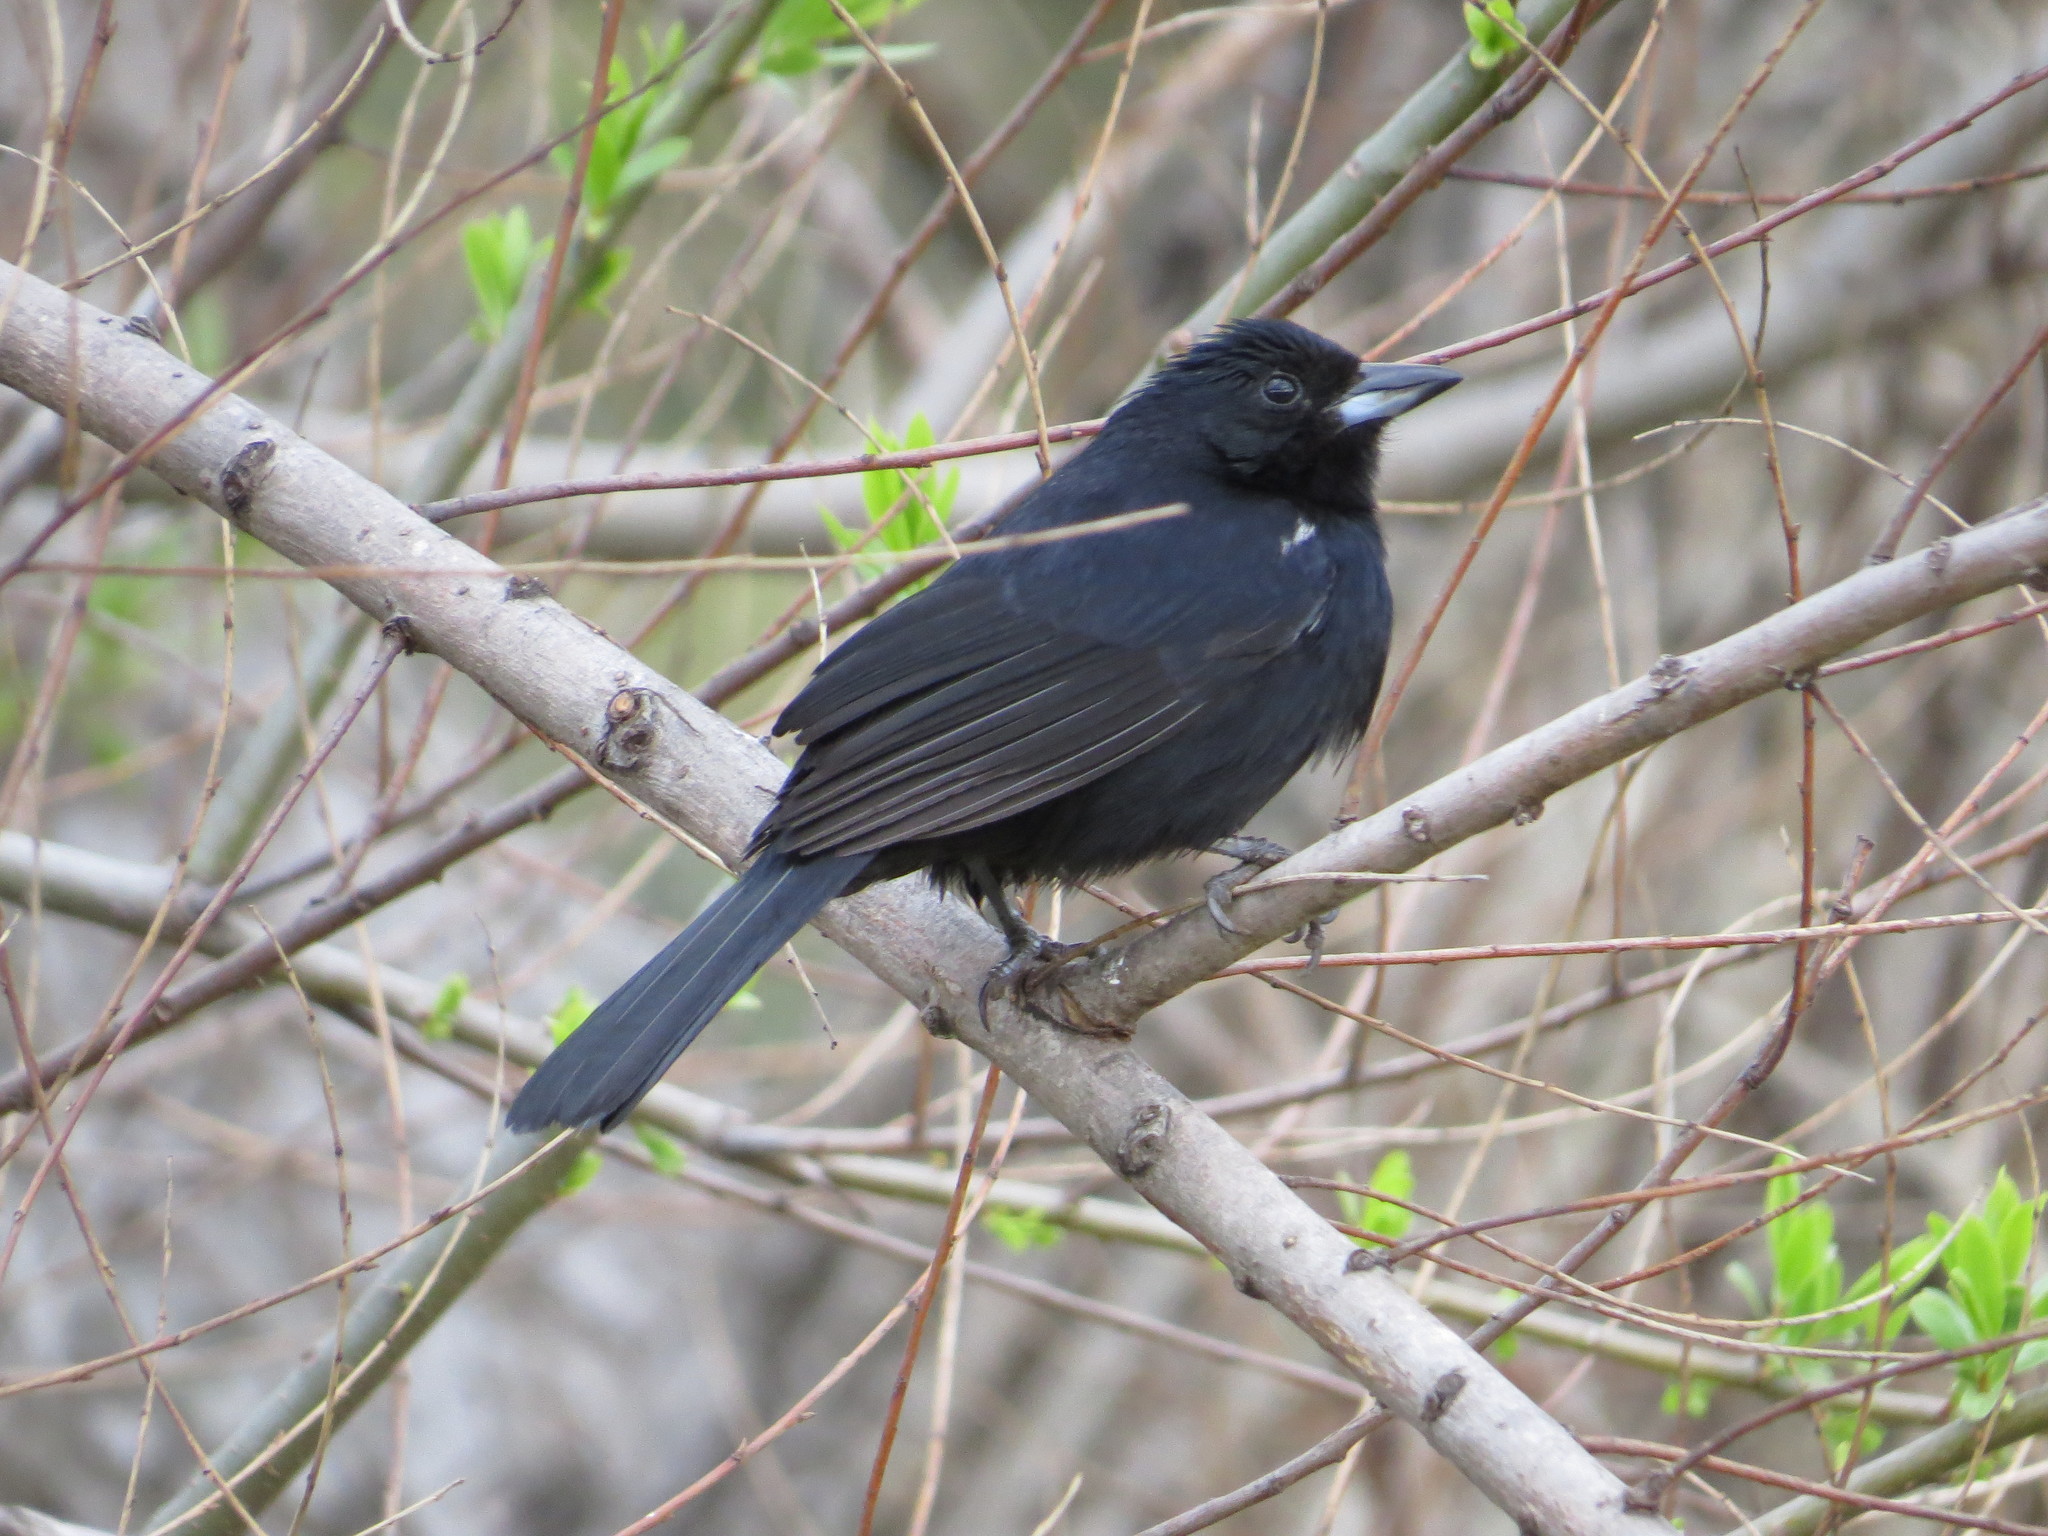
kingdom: Animalia
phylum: Chordata
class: Aves
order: Passeriformes
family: Thraupidae
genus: Tachyphonus
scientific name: Tachyphonus rufus
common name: White-lined tanager
